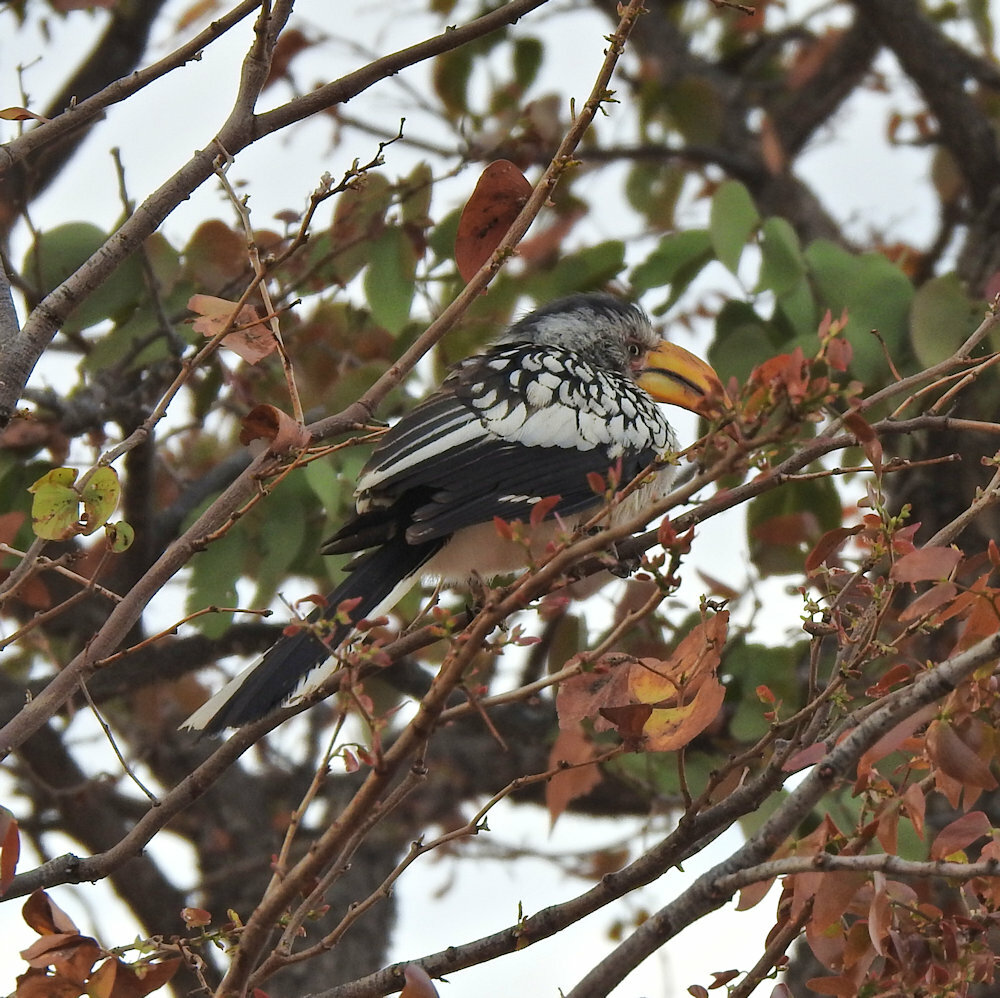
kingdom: Animalia
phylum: Chordata
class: Aves
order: Bucerotiformes
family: Bucerotidae
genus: Tockus
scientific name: Tockus leucomelas
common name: Southern yellow-billed hornbill
